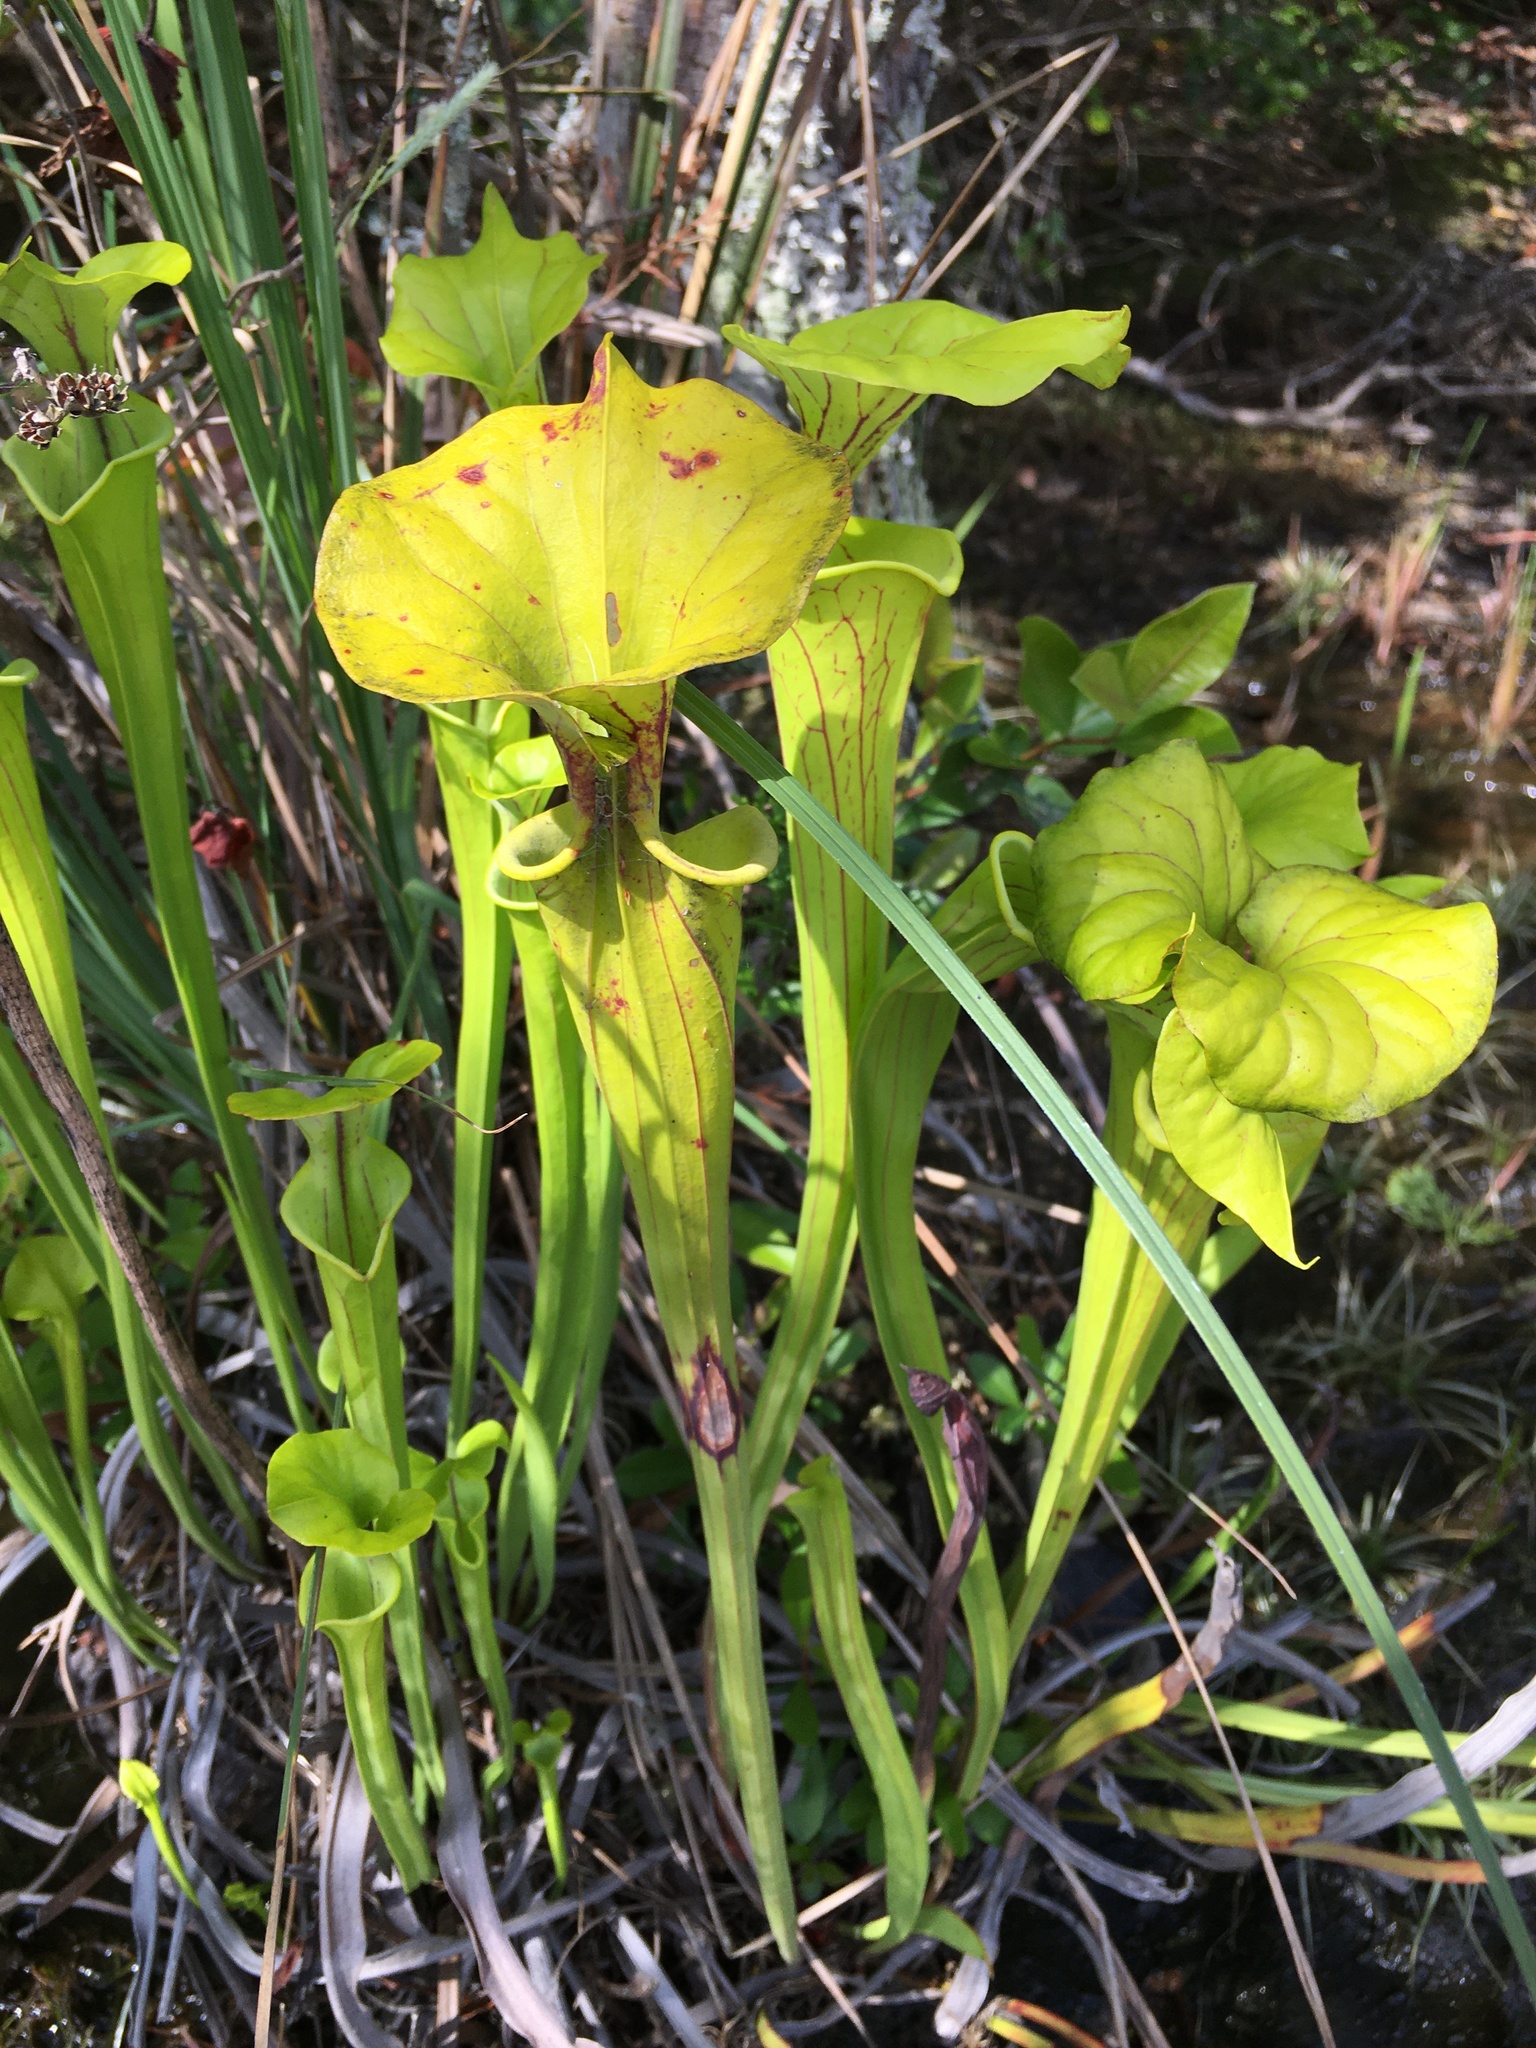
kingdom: Plantae
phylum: Tracheophyta
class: Magnoliopsida
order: Ericales
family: Sarraceniaceae
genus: Sarracenia
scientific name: Sarracenia flava
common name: Trumpets
